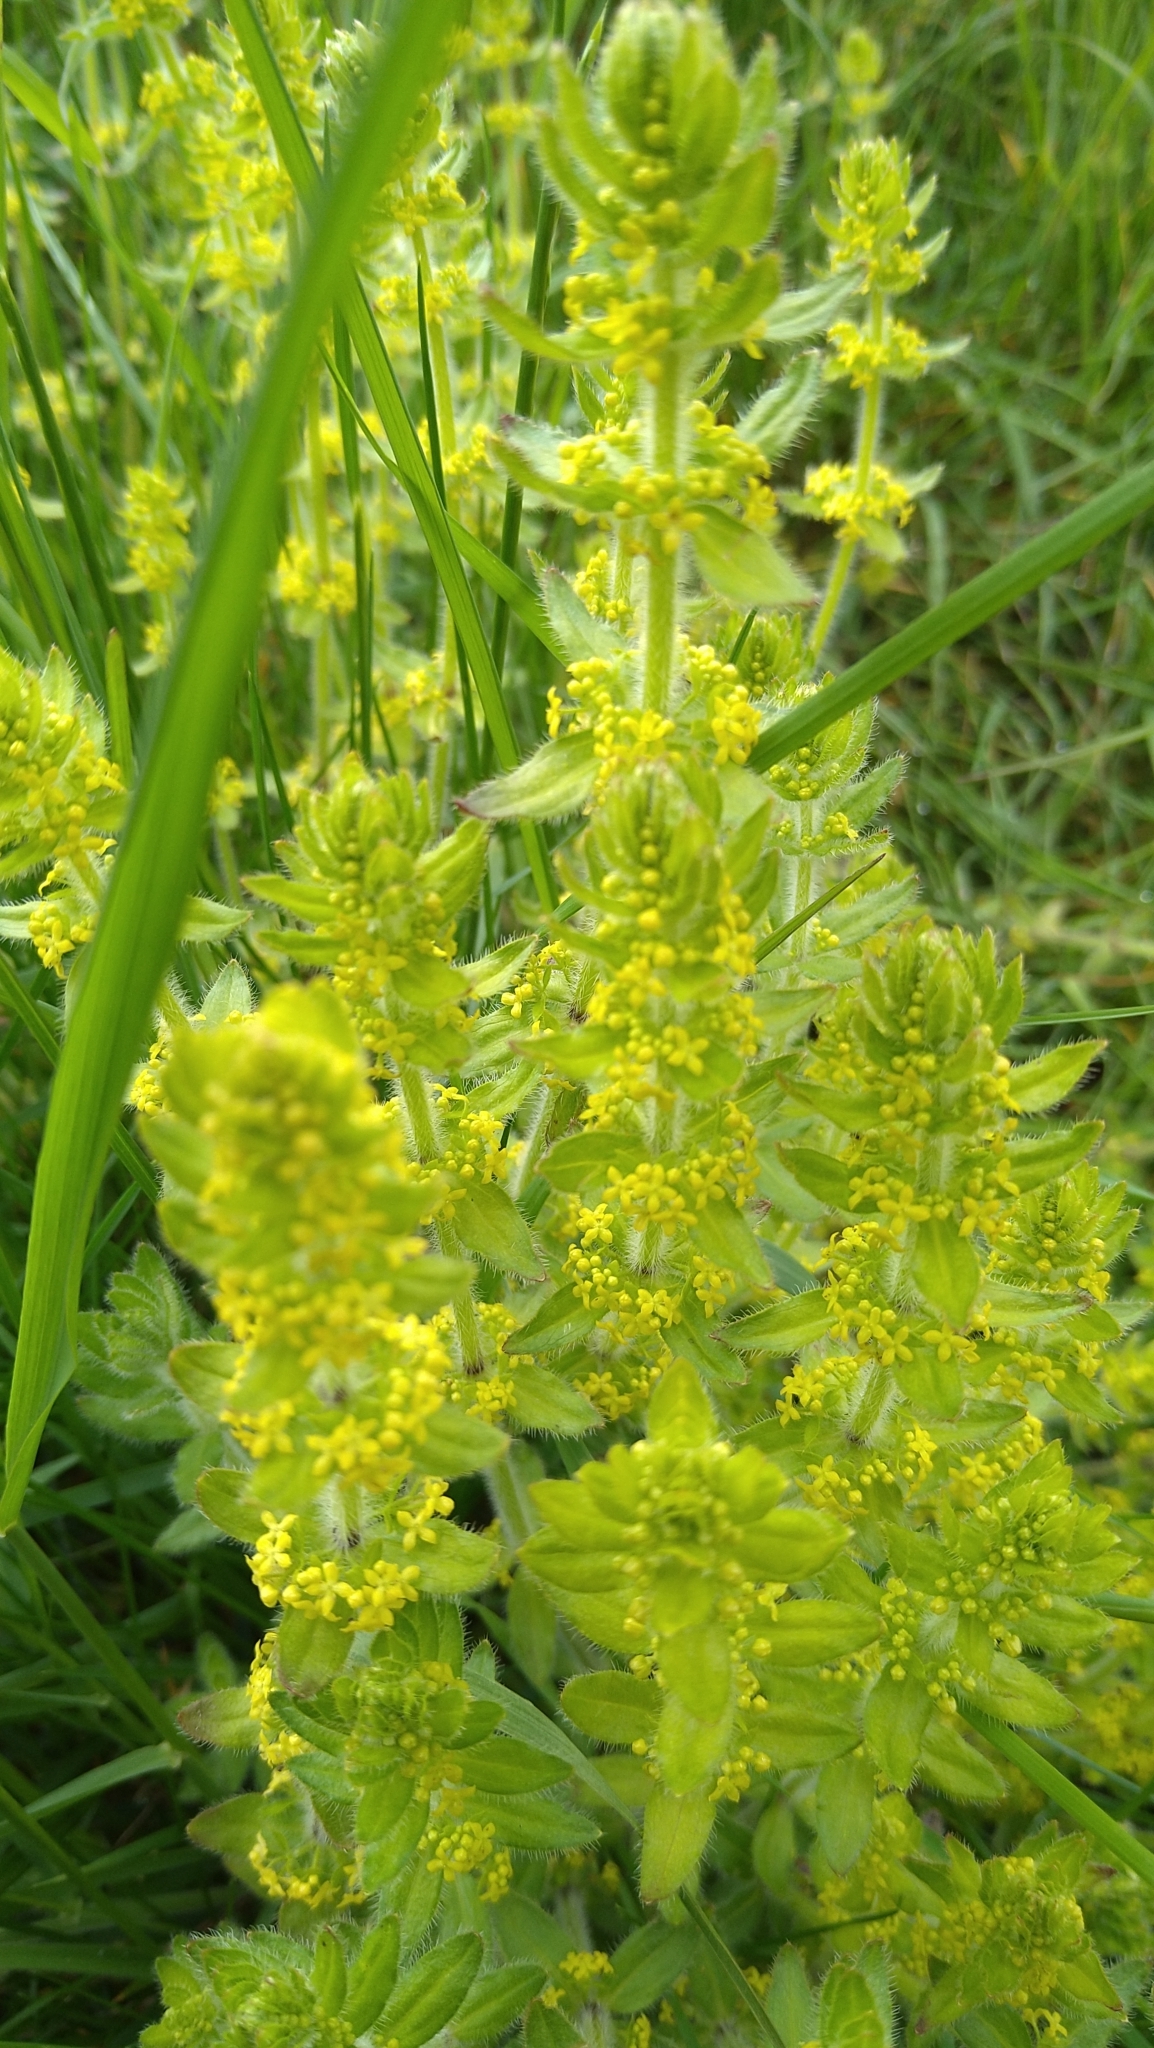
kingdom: Plantae
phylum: Tracheophyta
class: Magnoliopsida
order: Gentianales
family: Rubiaceae
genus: Cruciata
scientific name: Cruciata laevipes
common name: Crosswort
